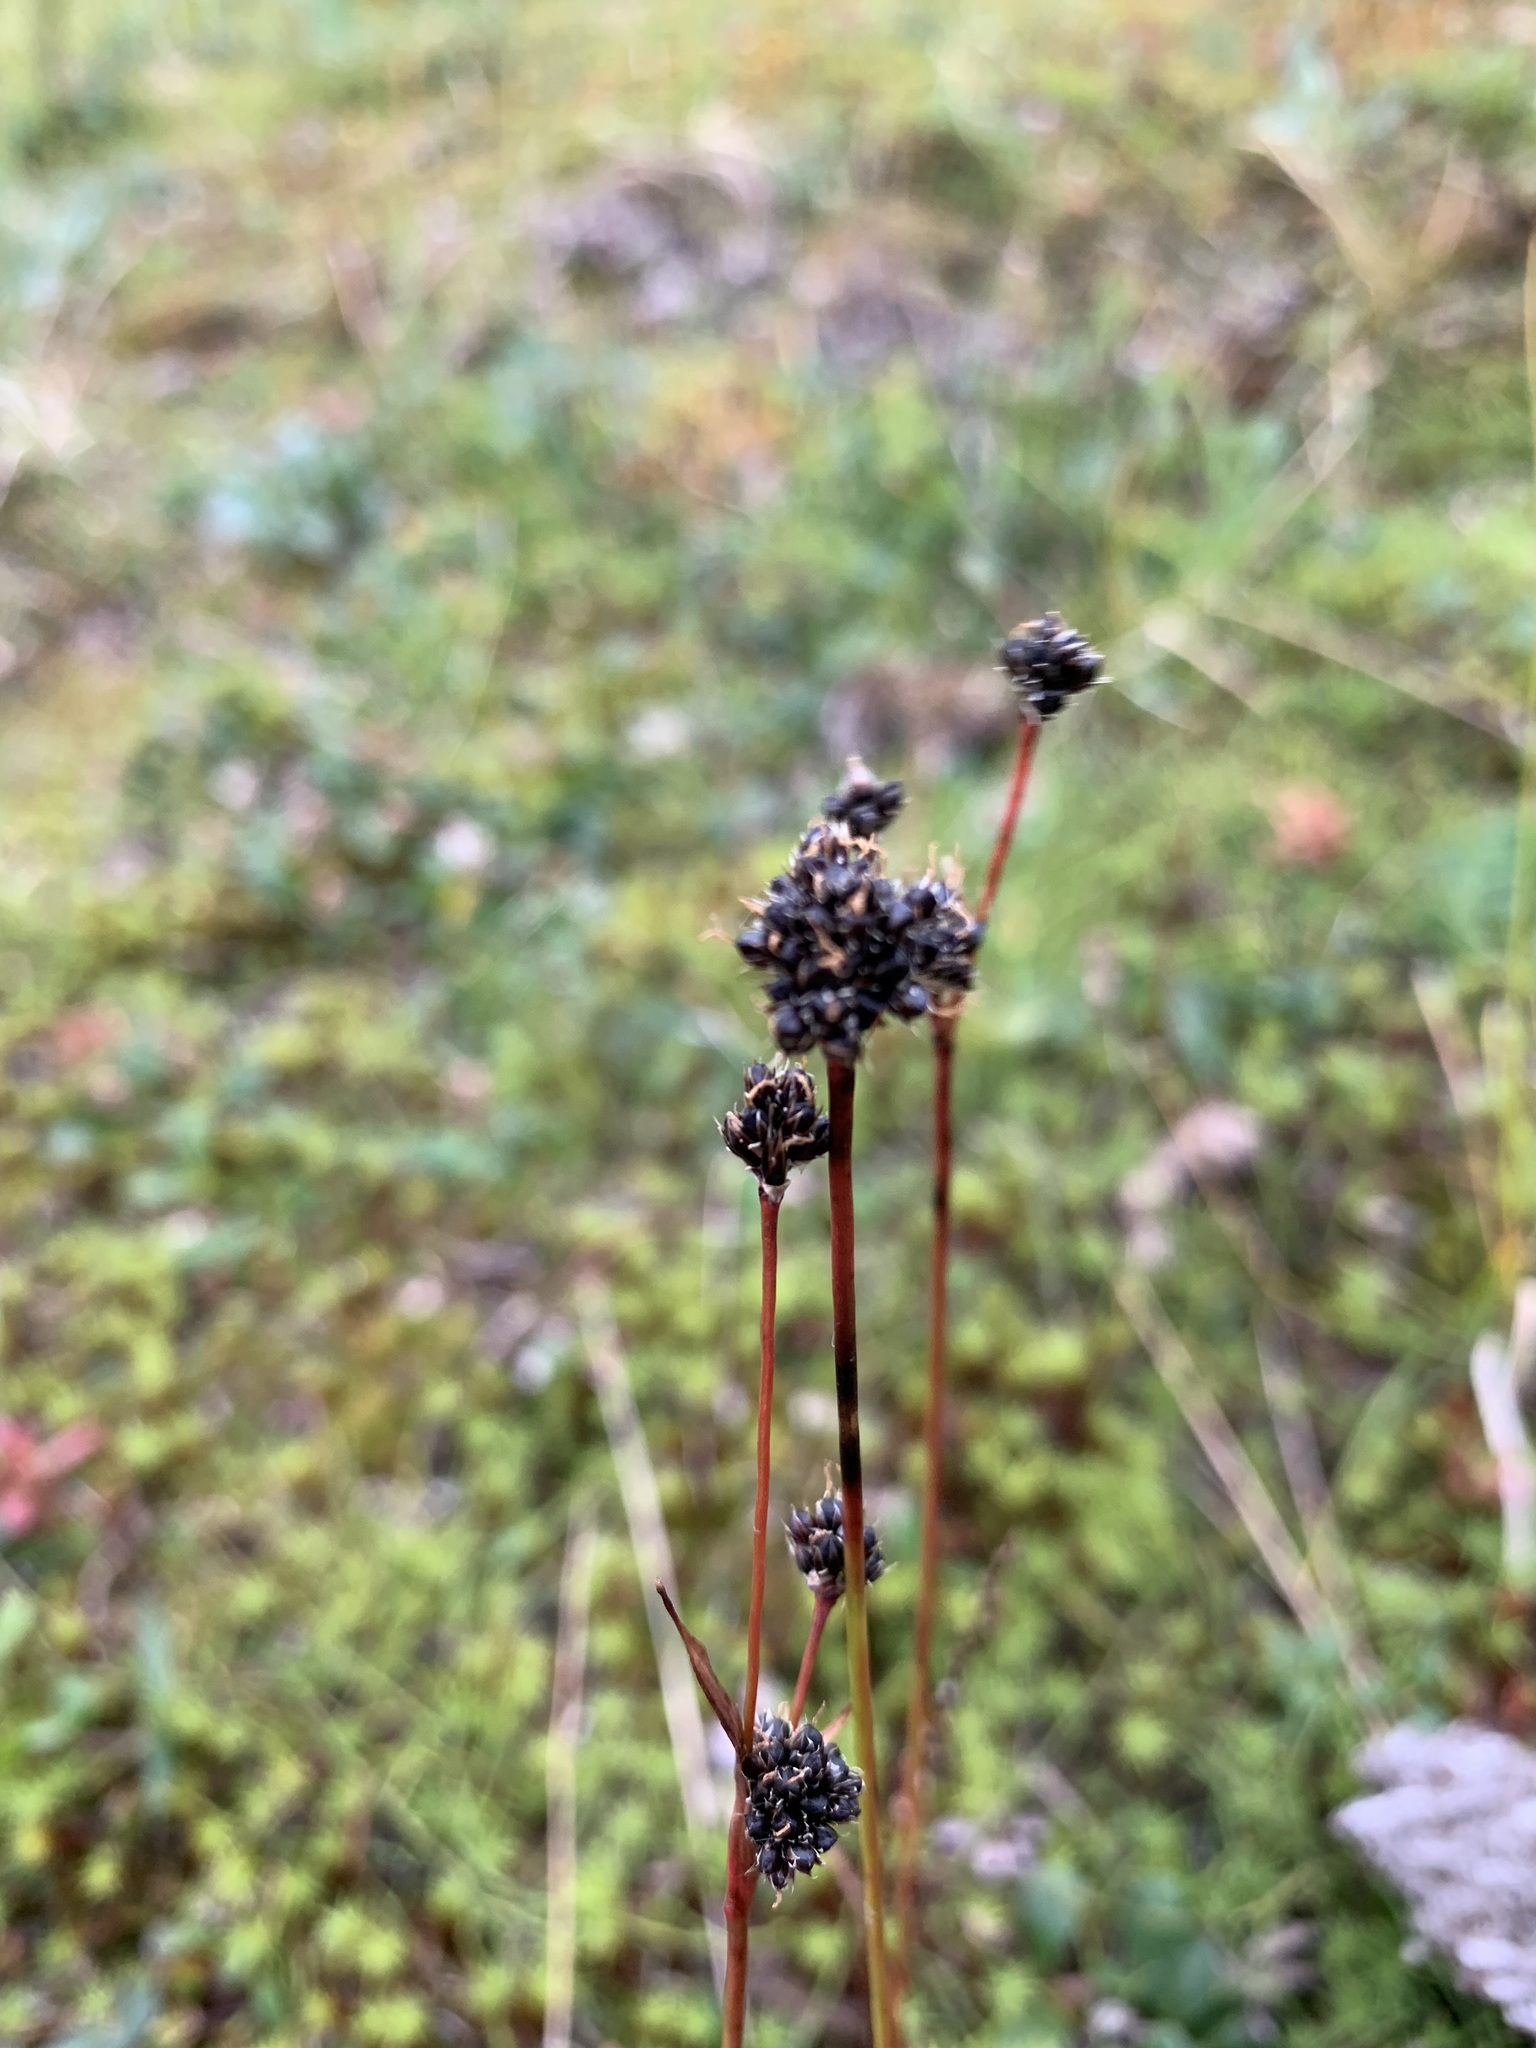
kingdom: Plantae
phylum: Tracheophyta
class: Liliopsida
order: Poales
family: Juncaceae
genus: Luzula
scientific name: Luzula nivalis
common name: Arctic woodrush
